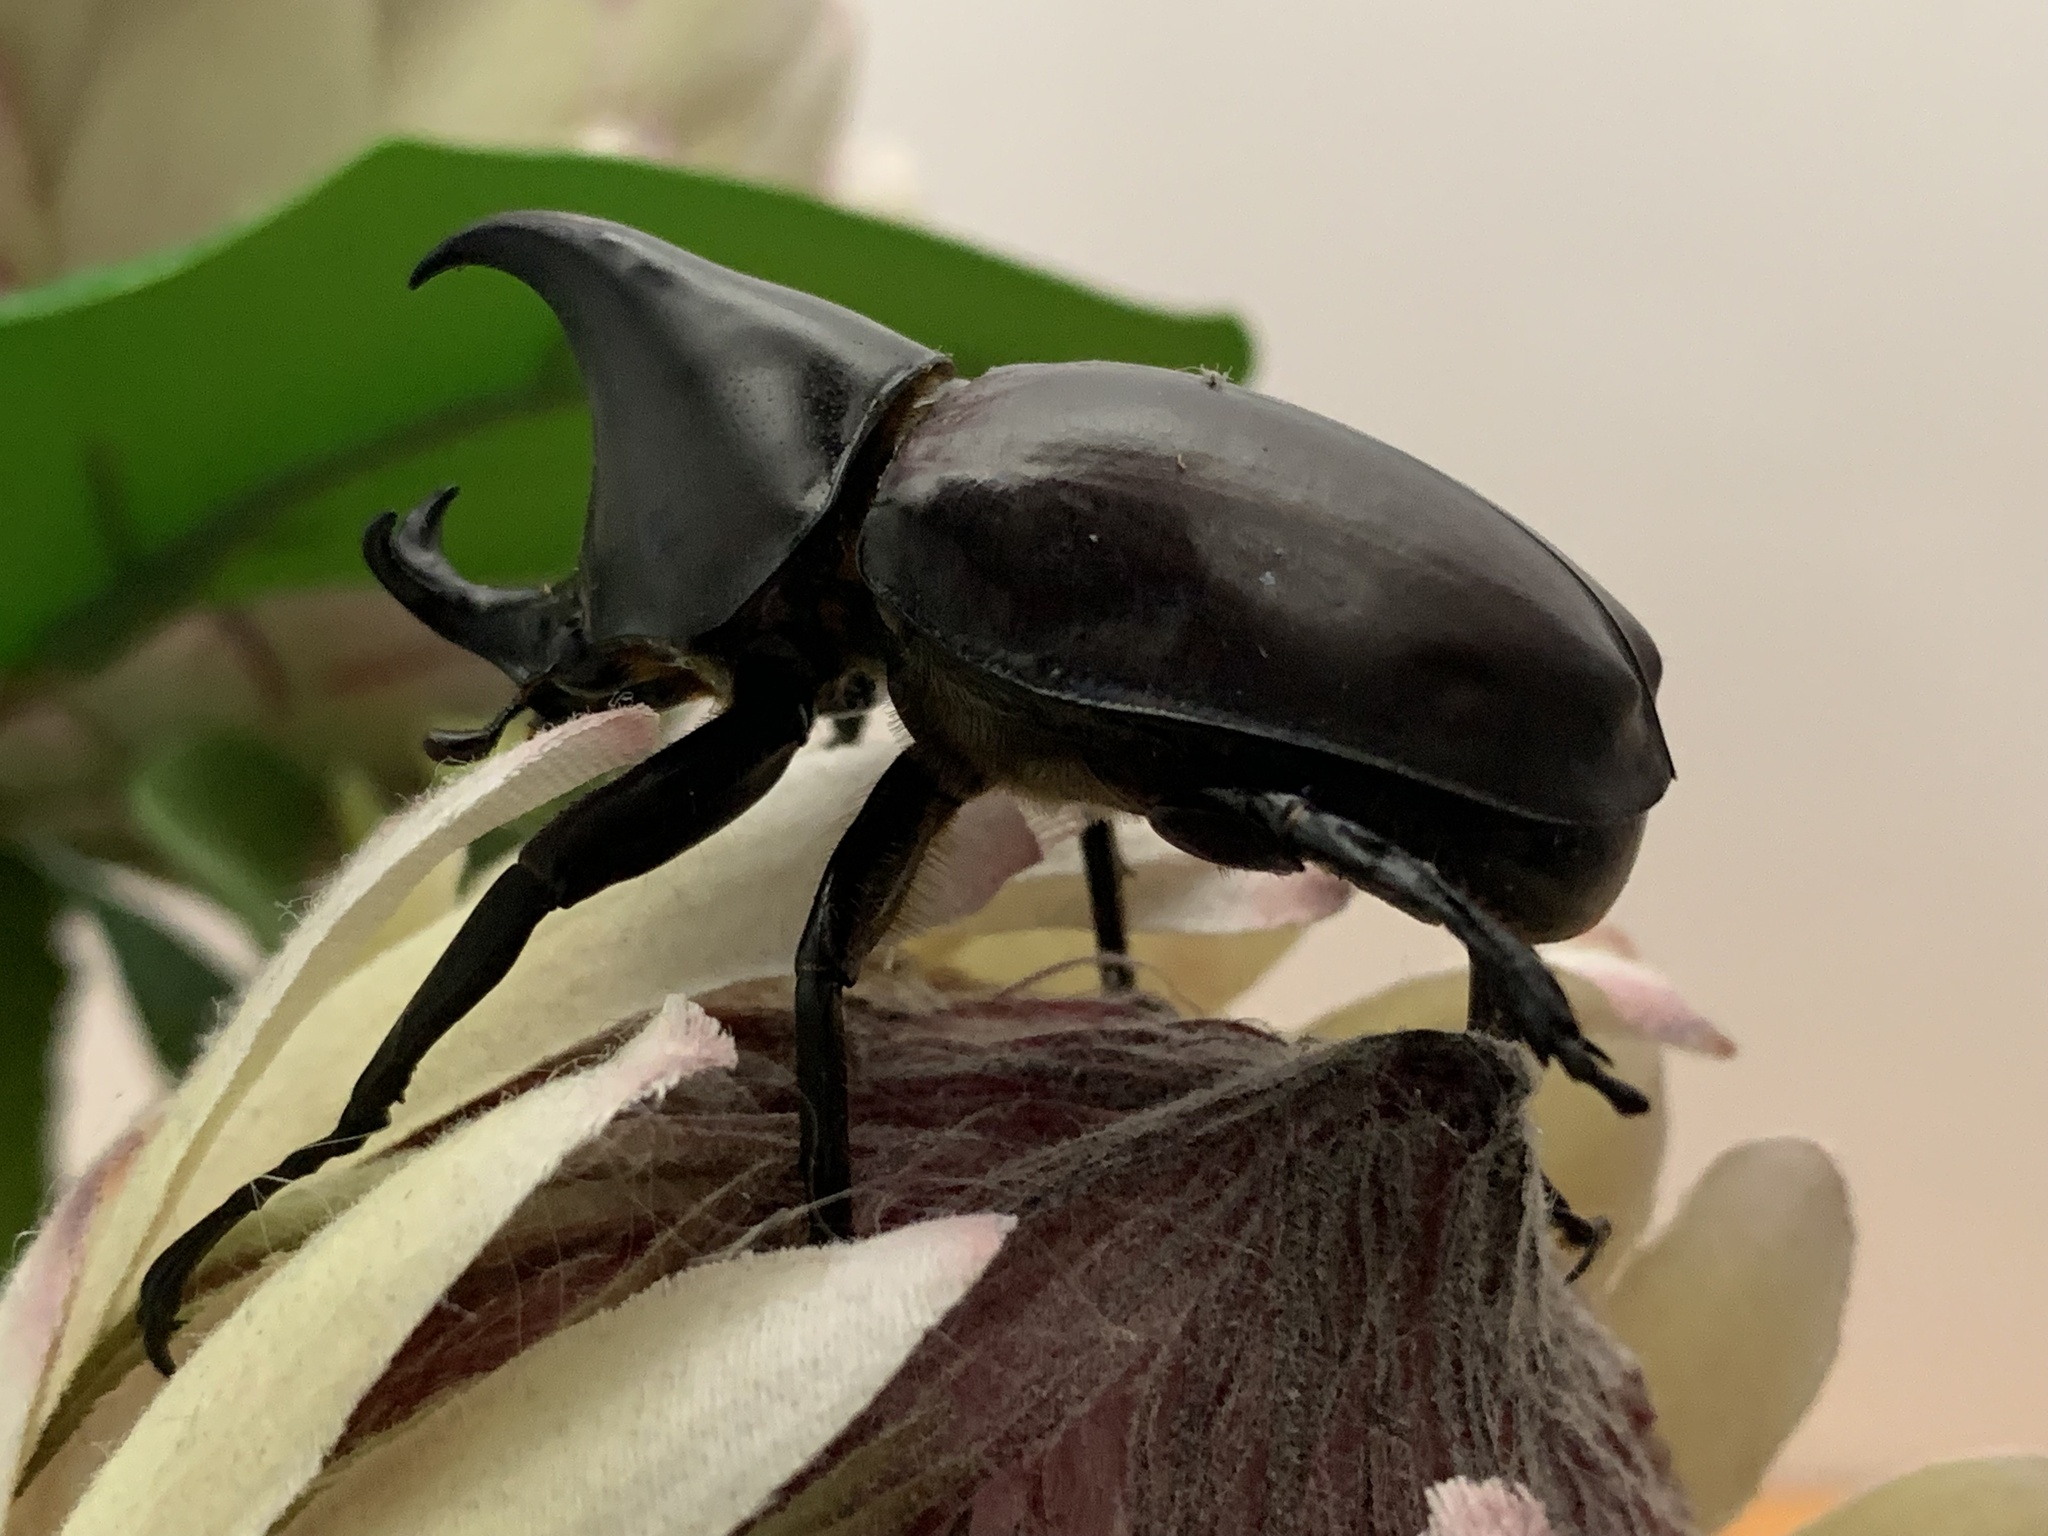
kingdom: Animalia
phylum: Arthropoda
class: Insecta
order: Coleoptera
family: Scarabaeidae
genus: Xylotrupes
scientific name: Xylotrupes australicus
